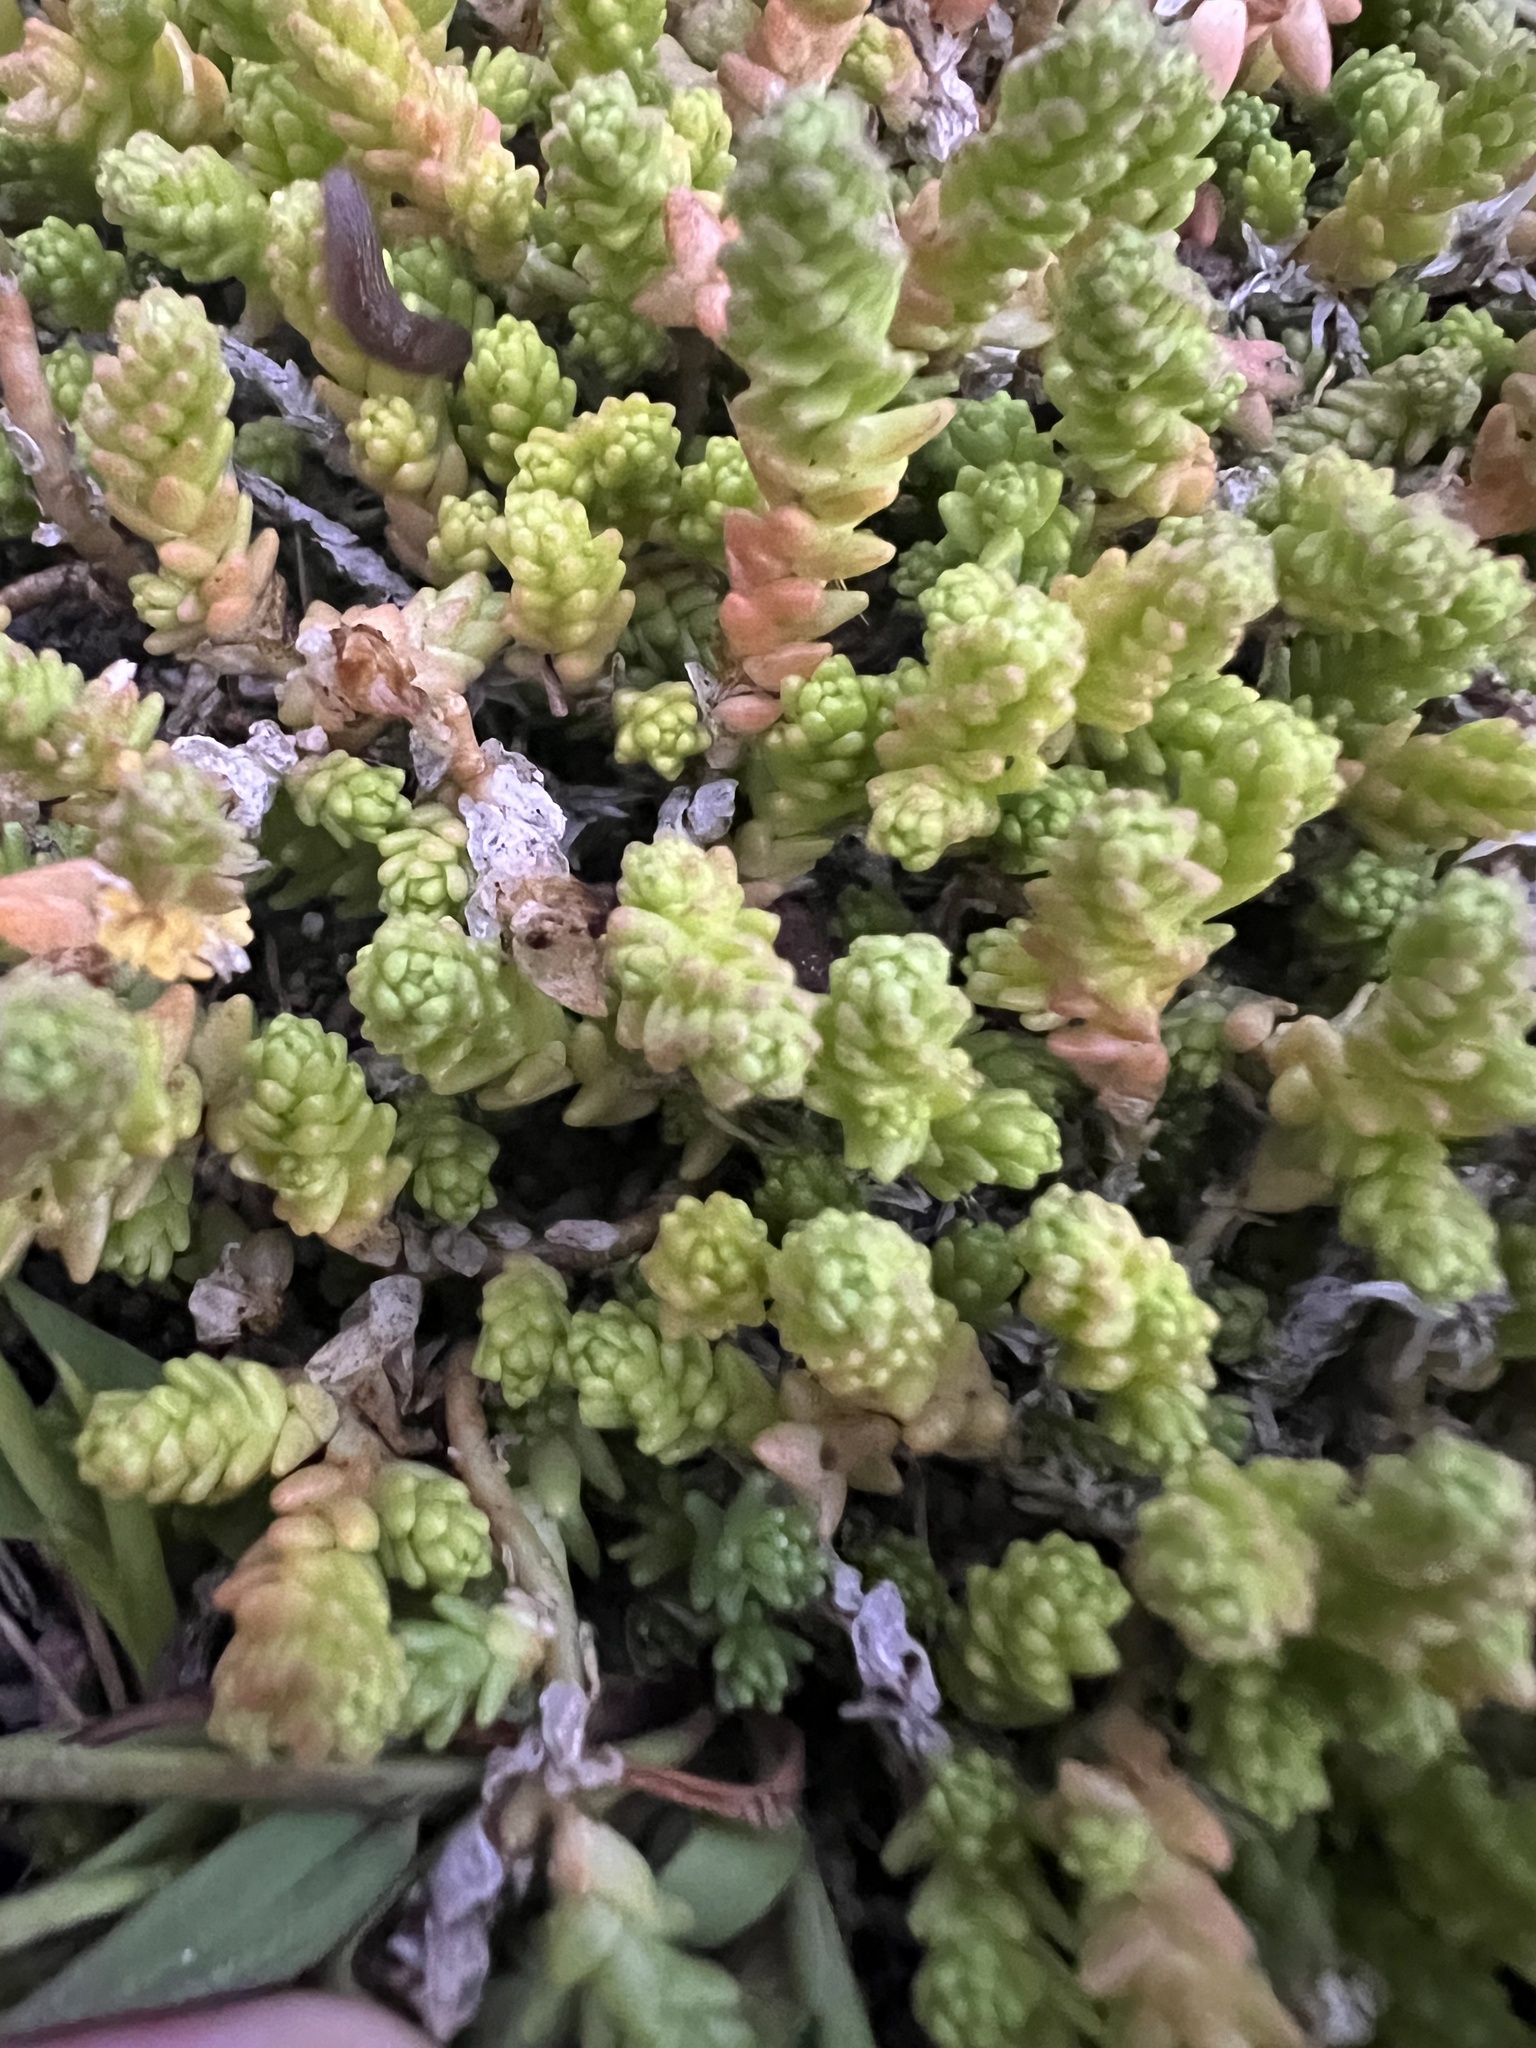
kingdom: Plantae
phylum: Tracheophyta
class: Magnoliopsida
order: Saxifragales
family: Crassulaceae
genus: Sedum
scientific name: Sedum acre
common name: Biting stonecrop
